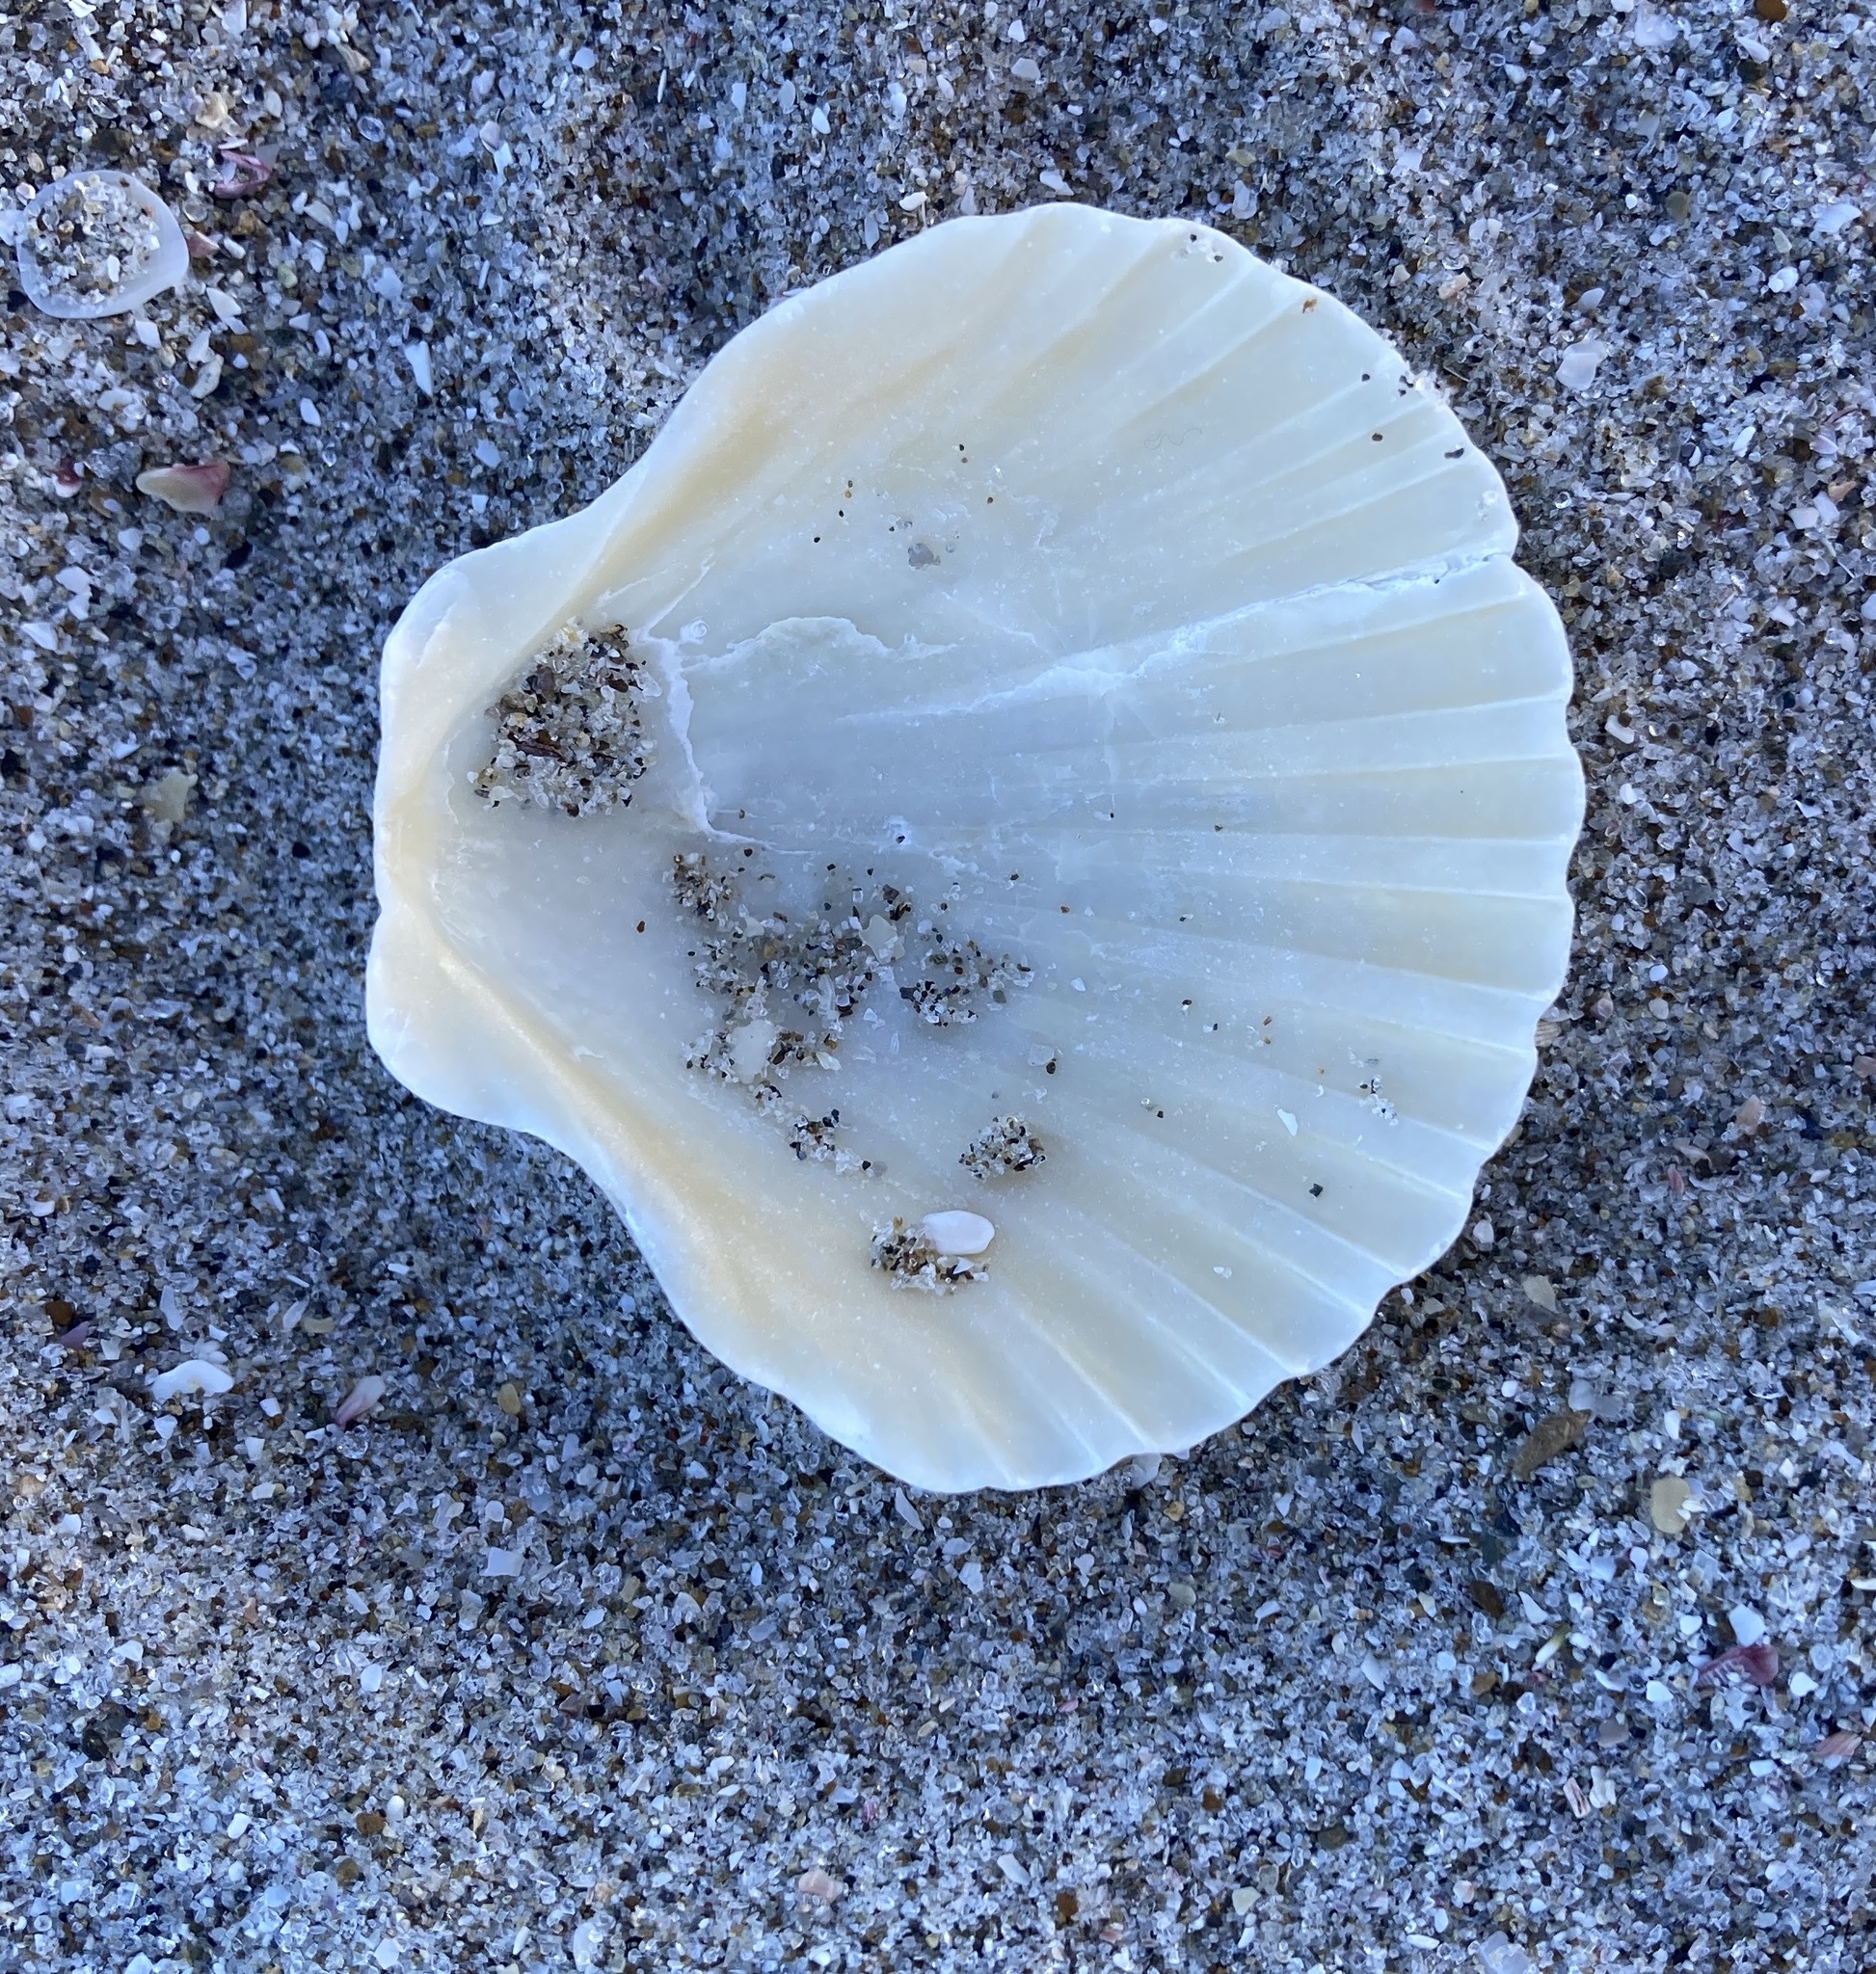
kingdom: Animalia
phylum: Mollusca
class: Bivalvia
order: Pectinida
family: Pectinidae
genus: Pecten
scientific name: Pecten novaezelandiae
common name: New zealand scallop
